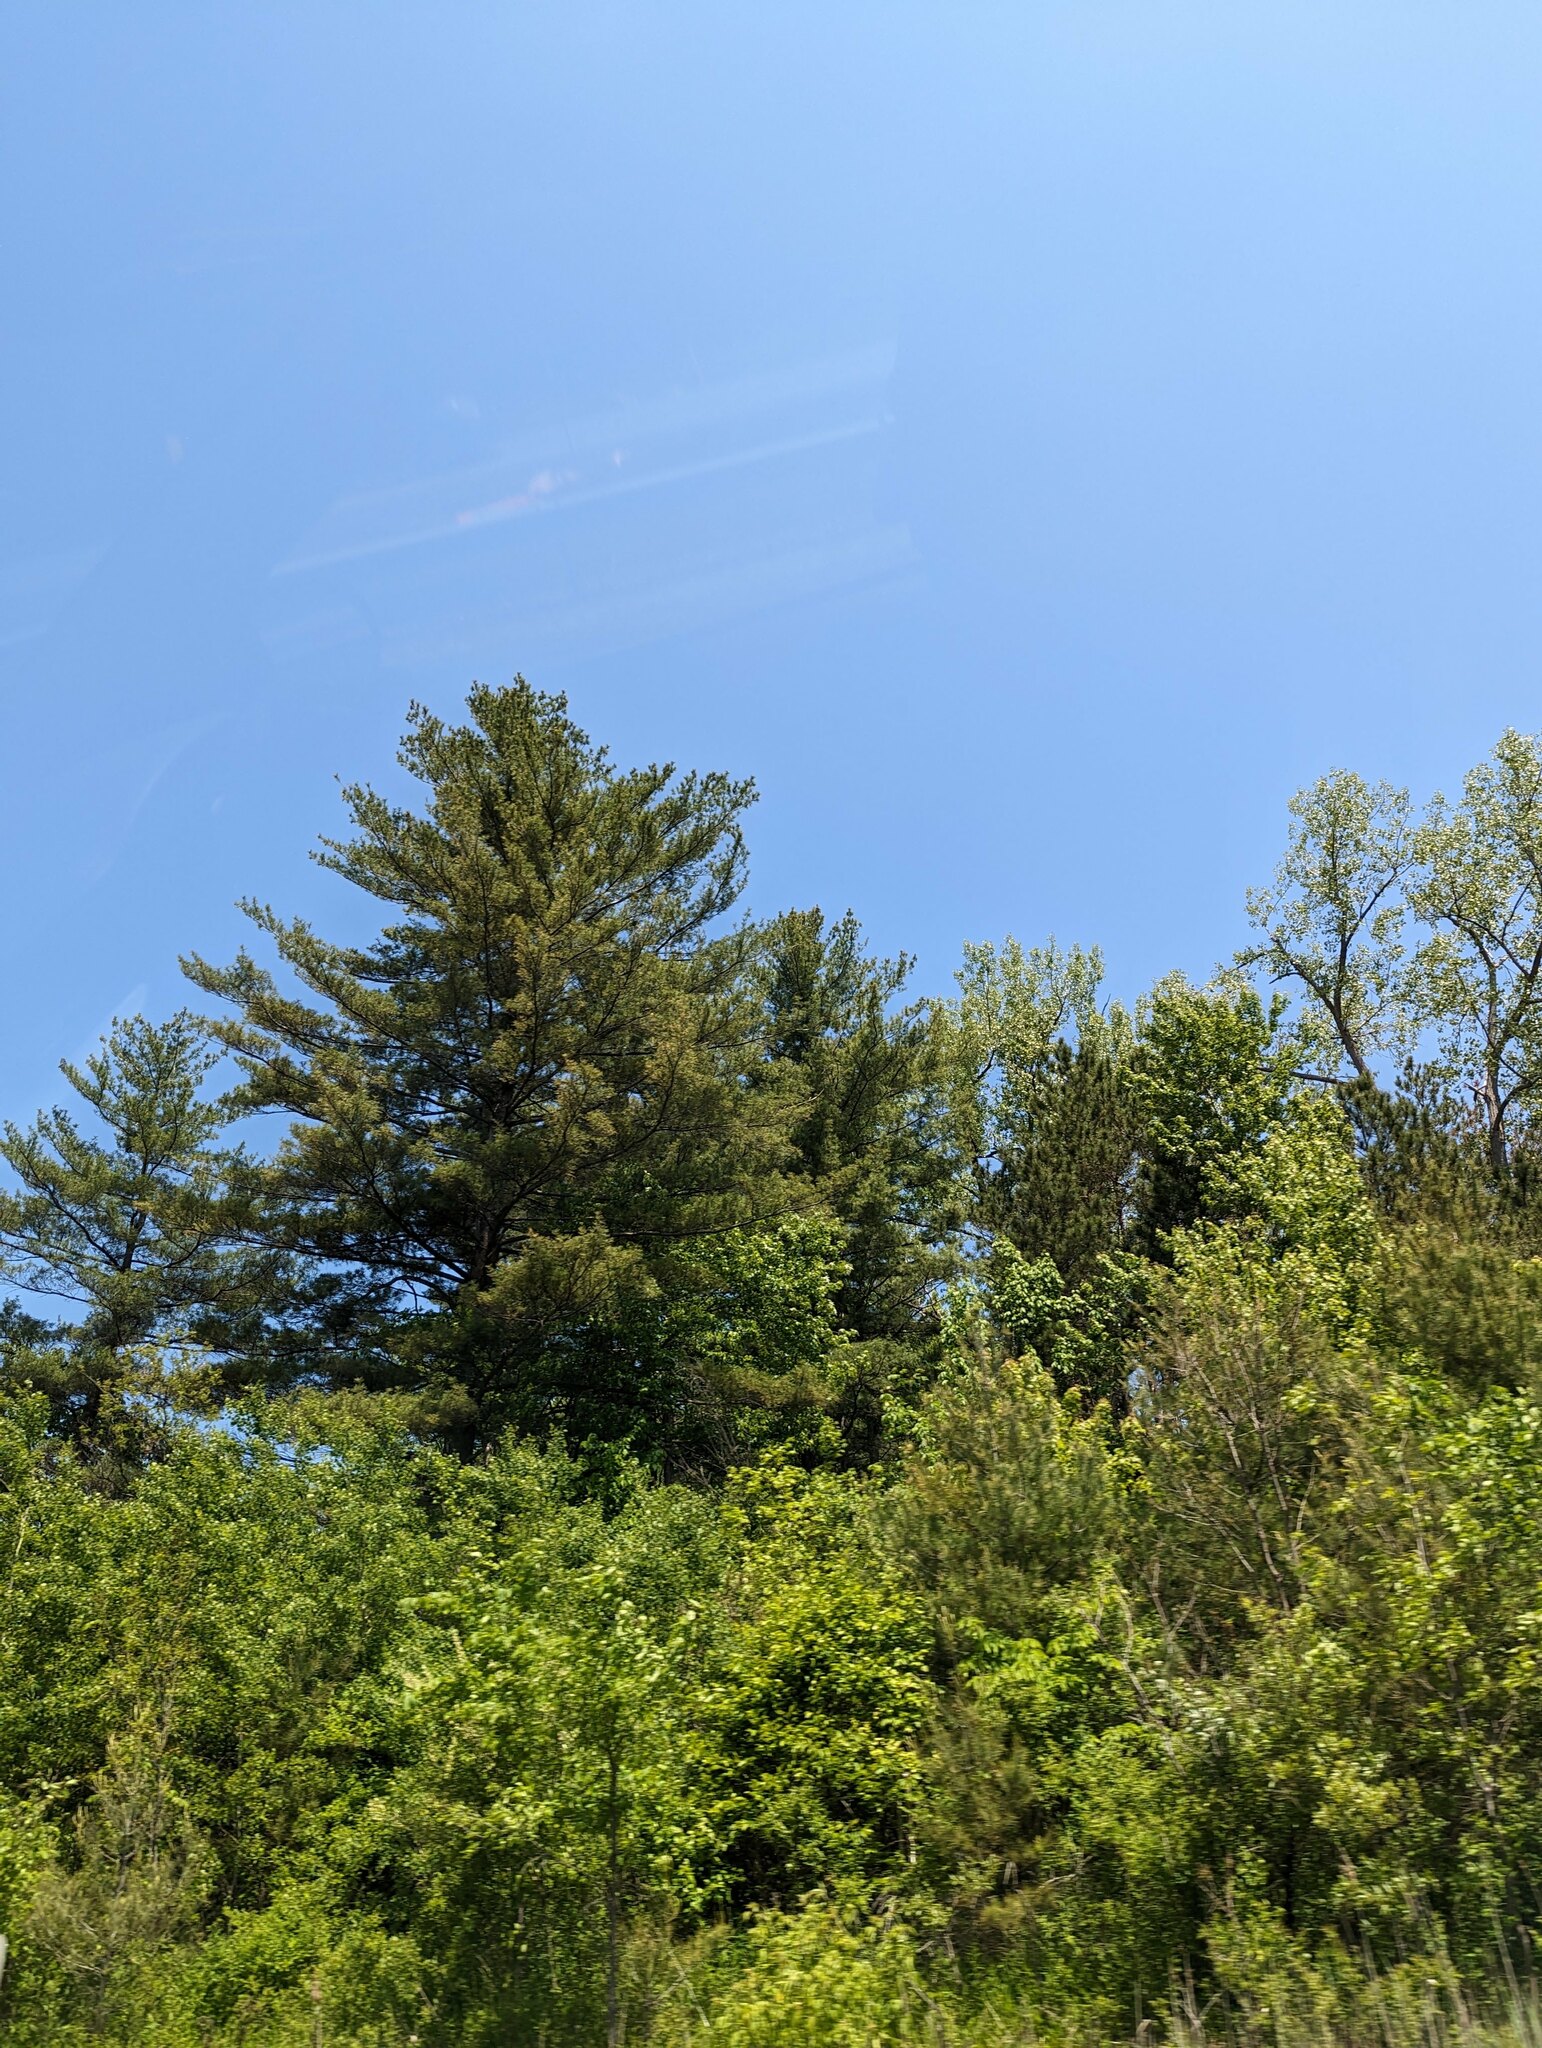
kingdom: Plantae
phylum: Tracheophyta
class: Pinopsida
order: Pinales
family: Pinaceae
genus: Pinus
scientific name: Pinus strobus
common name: Weymouth pine
